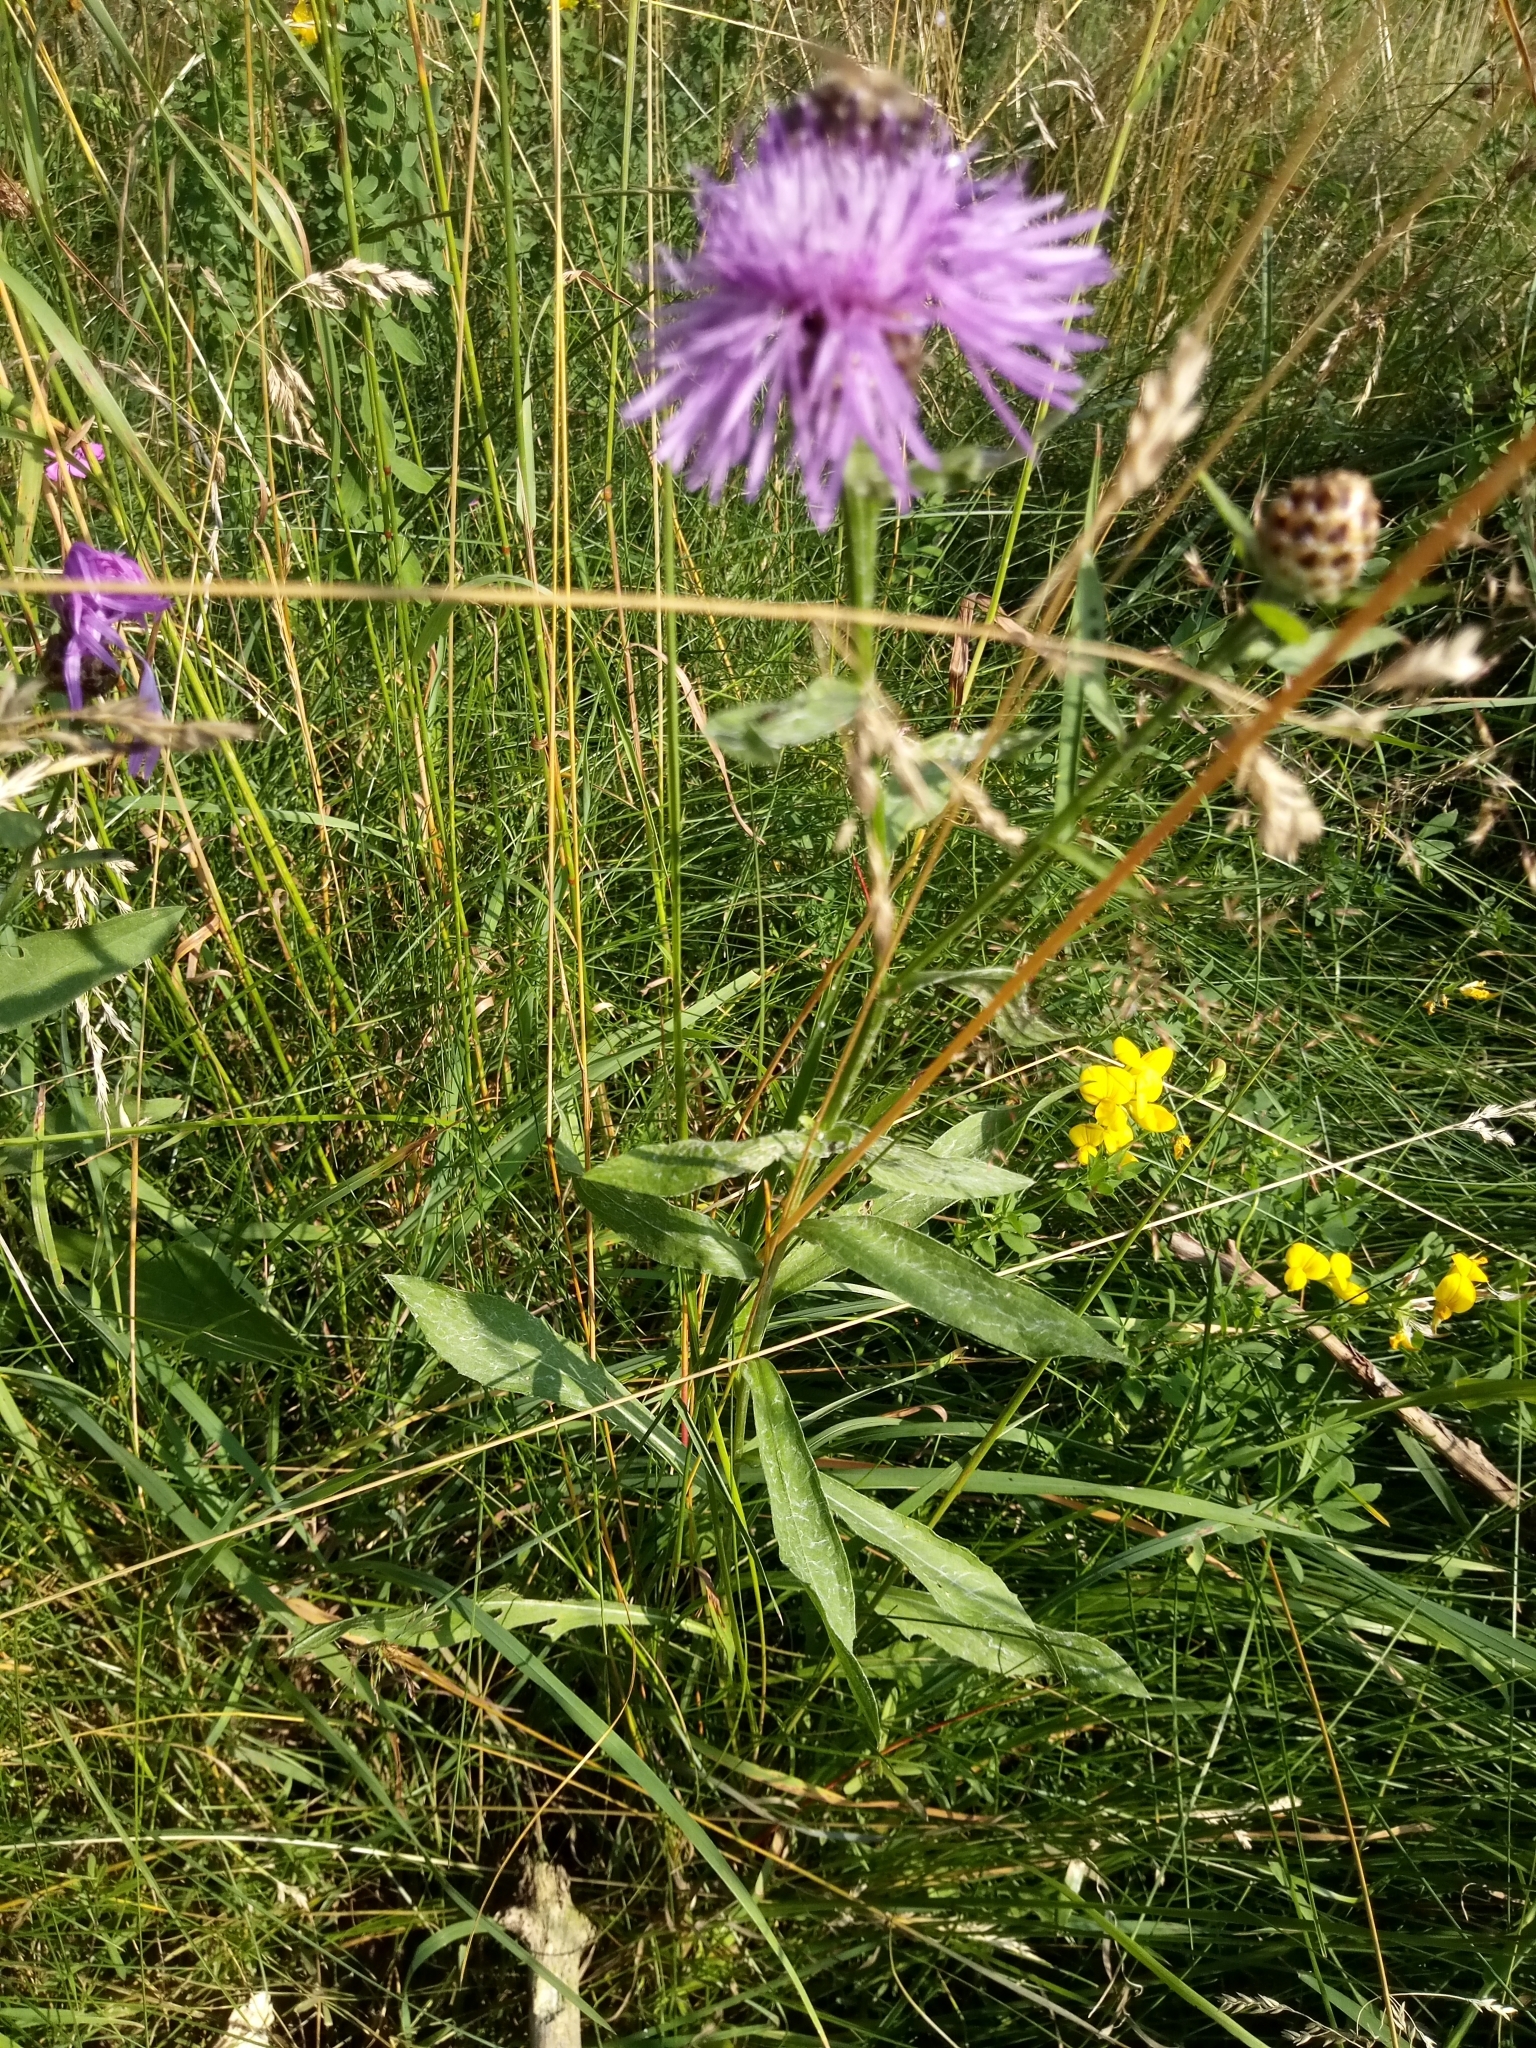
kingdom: Plantae
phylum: Tracheophyta
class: Magnoliopsida
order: Asterales
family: Asteraceae
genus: Centaurea
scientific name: Centaurea jacea
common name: Brown knapweed
